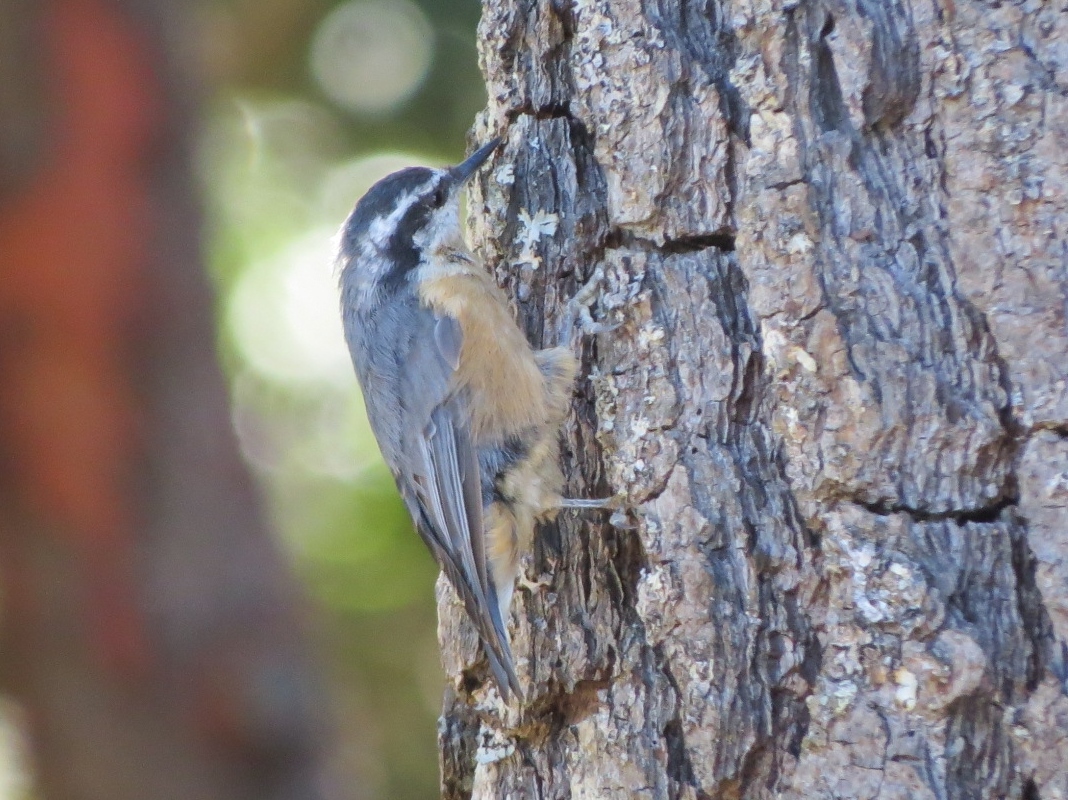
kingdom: Animalia
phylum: Chordata
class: Aves
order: Passeriformes
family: Sittidae
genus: Sitta
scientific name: Sitta canadensis
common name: Red-breasted nuthatch
